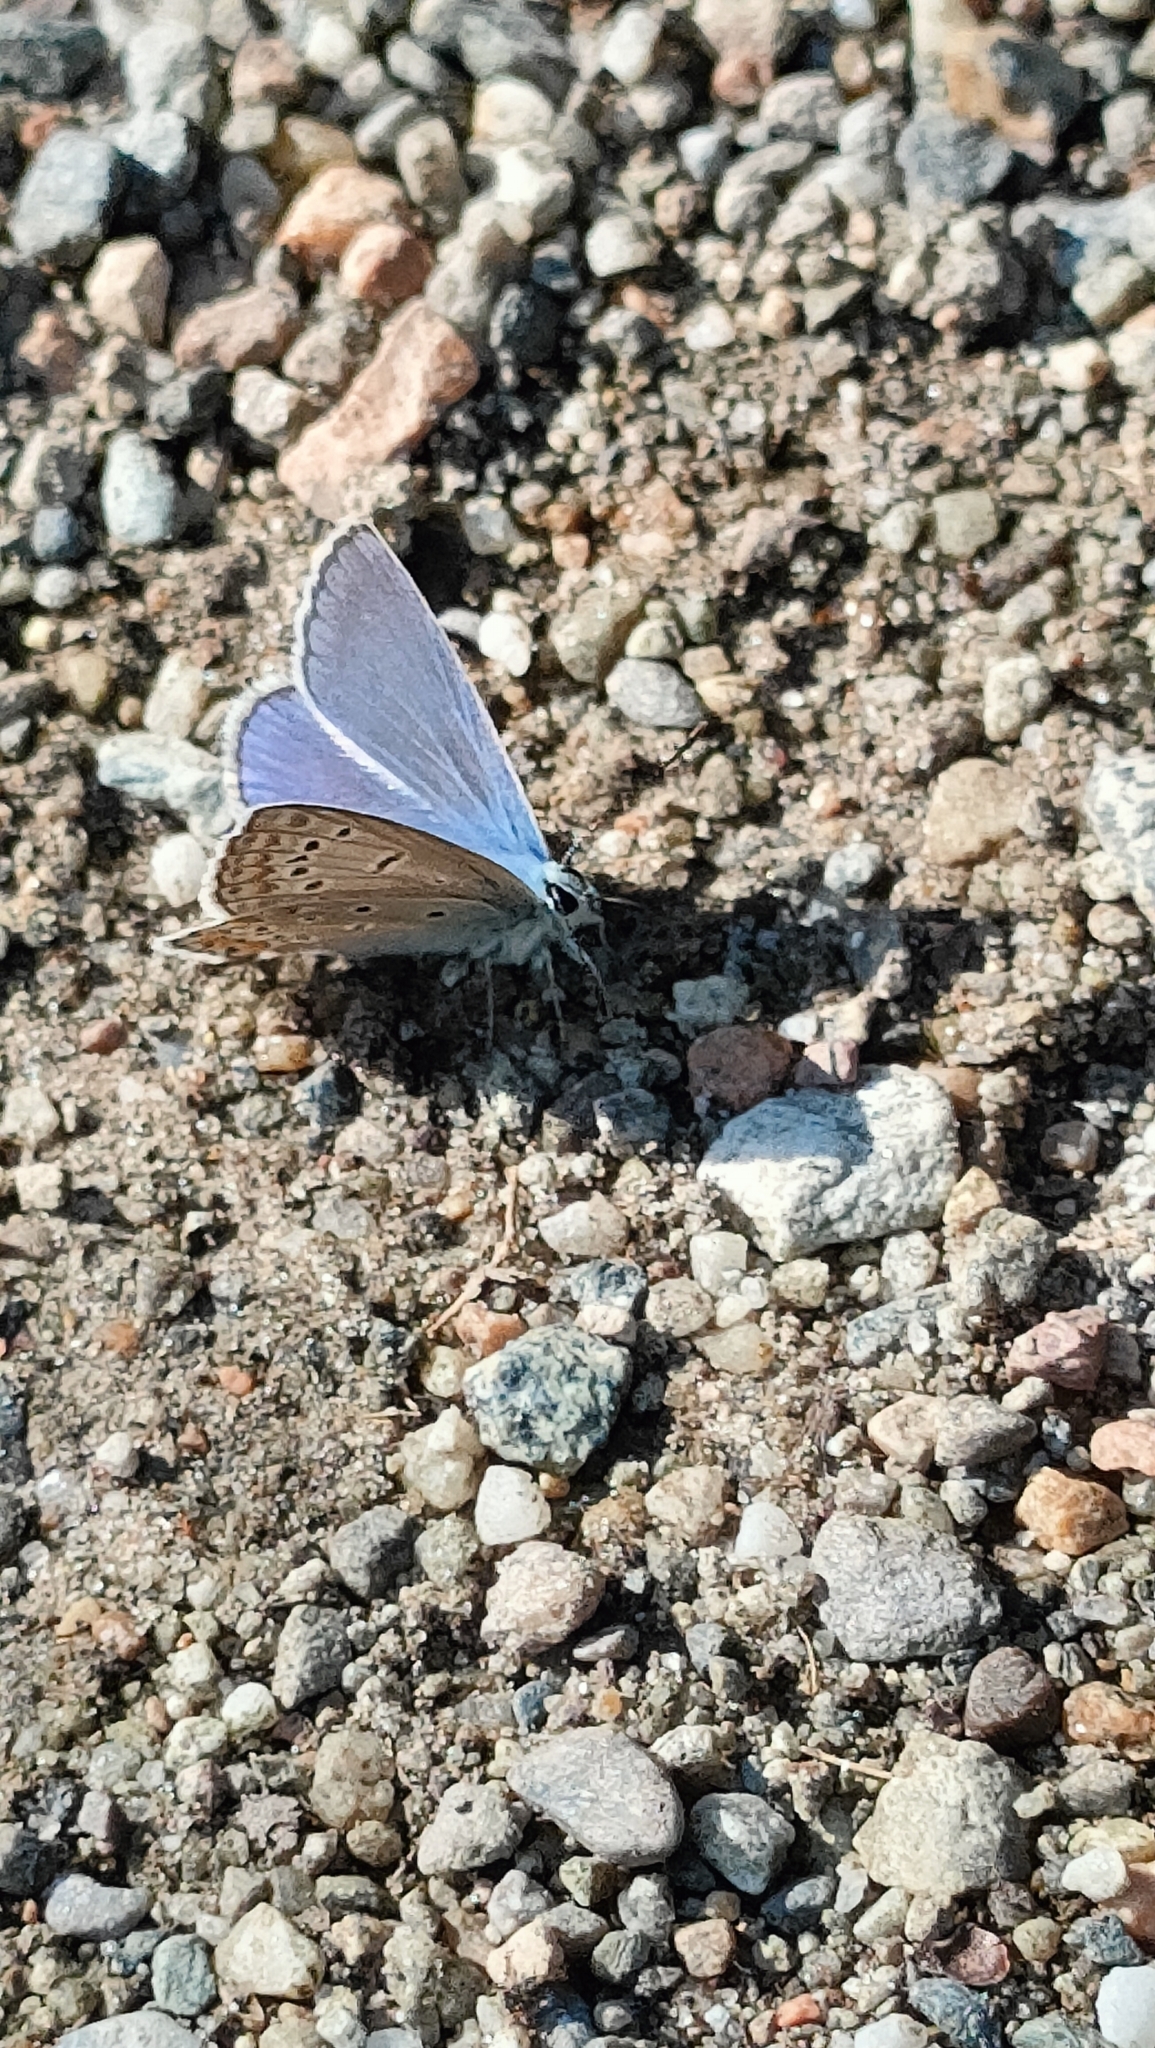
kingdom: Animalia
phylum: Arthropoda
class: Insecta
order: Lepidoptera
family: Lycaenidae
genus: Polyommatus
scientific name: Polyommatus icarus
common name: Common blue
